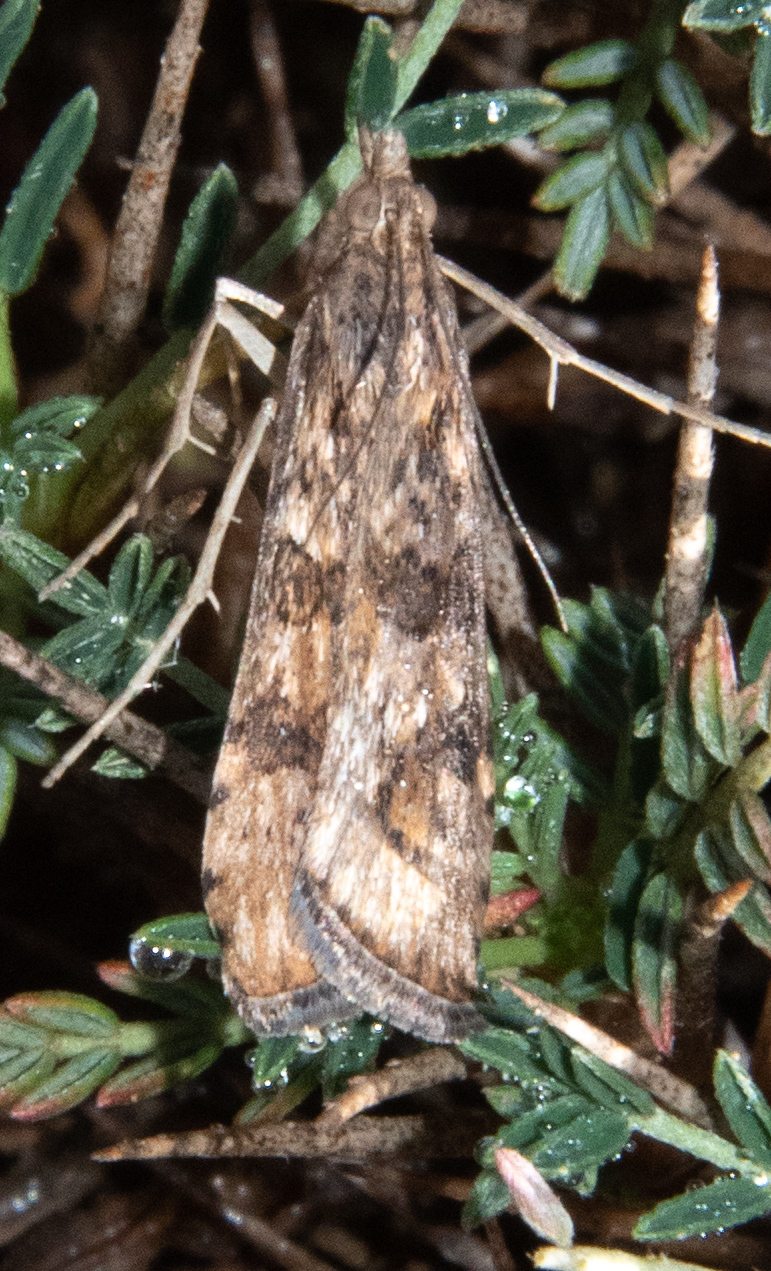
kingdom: Animalia
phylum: Arthropoda
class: Insecta
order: Lepidoptera
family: Crambidae
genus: Nomophila
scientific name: Nomophila noctuella
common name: Rush veneer
